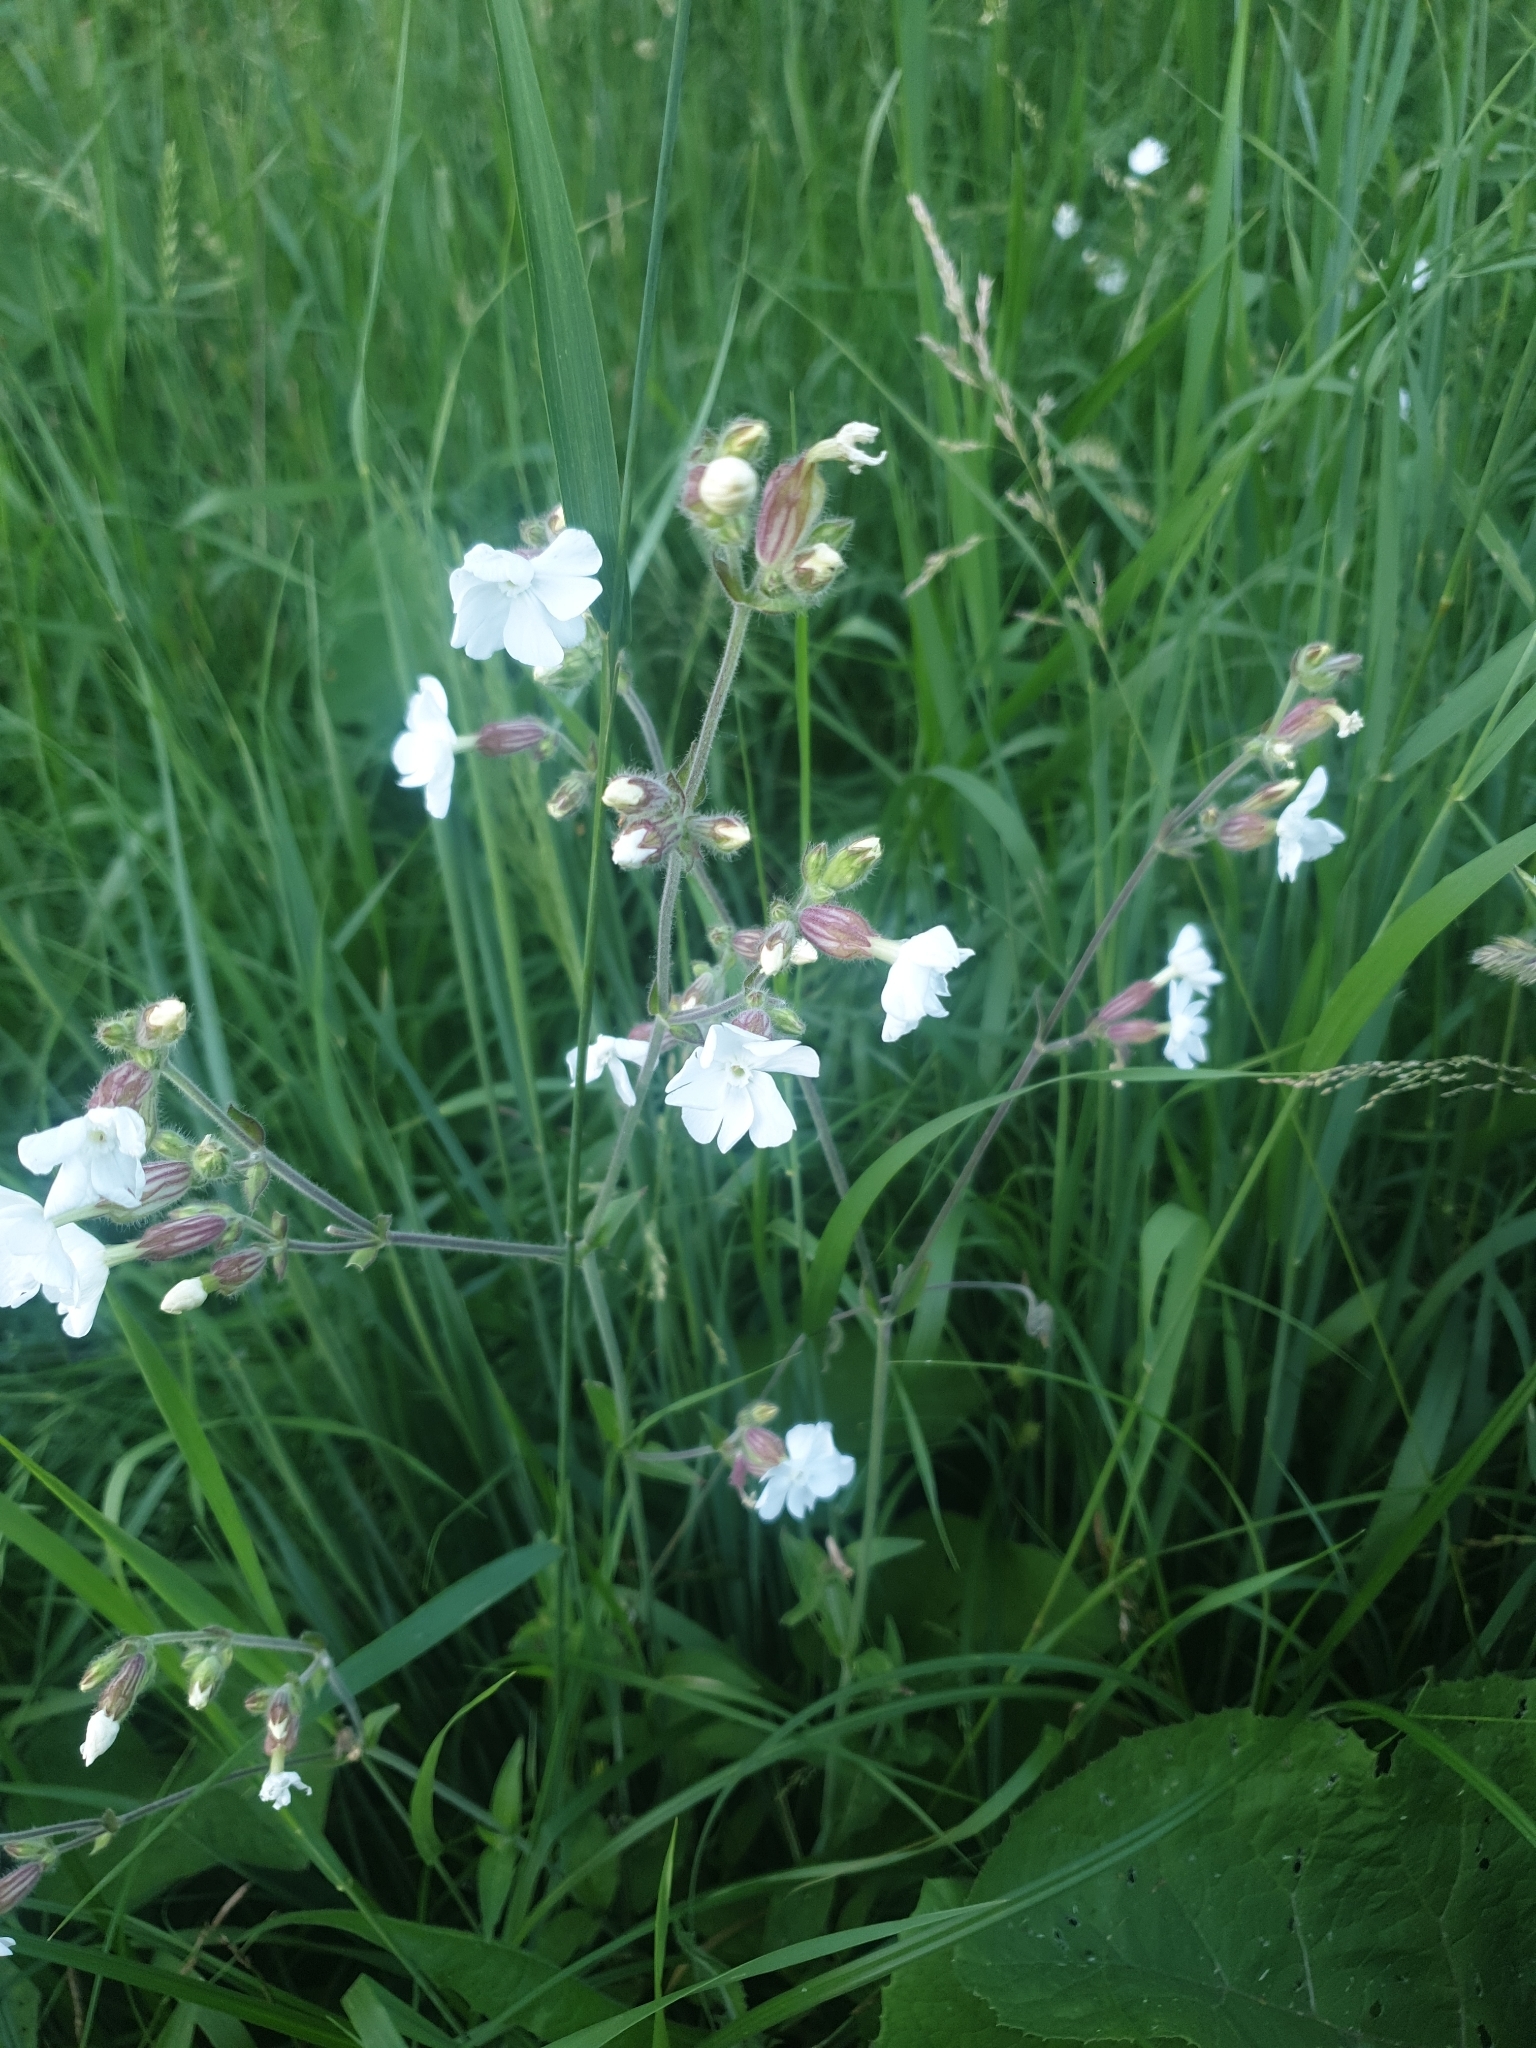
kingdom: Plantae
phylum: Tracheophyta
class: Magnoliopsida
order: Caryophyllales
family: Caryophyllaceae
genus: Silene
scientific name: Silene latifolia
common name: White campion
